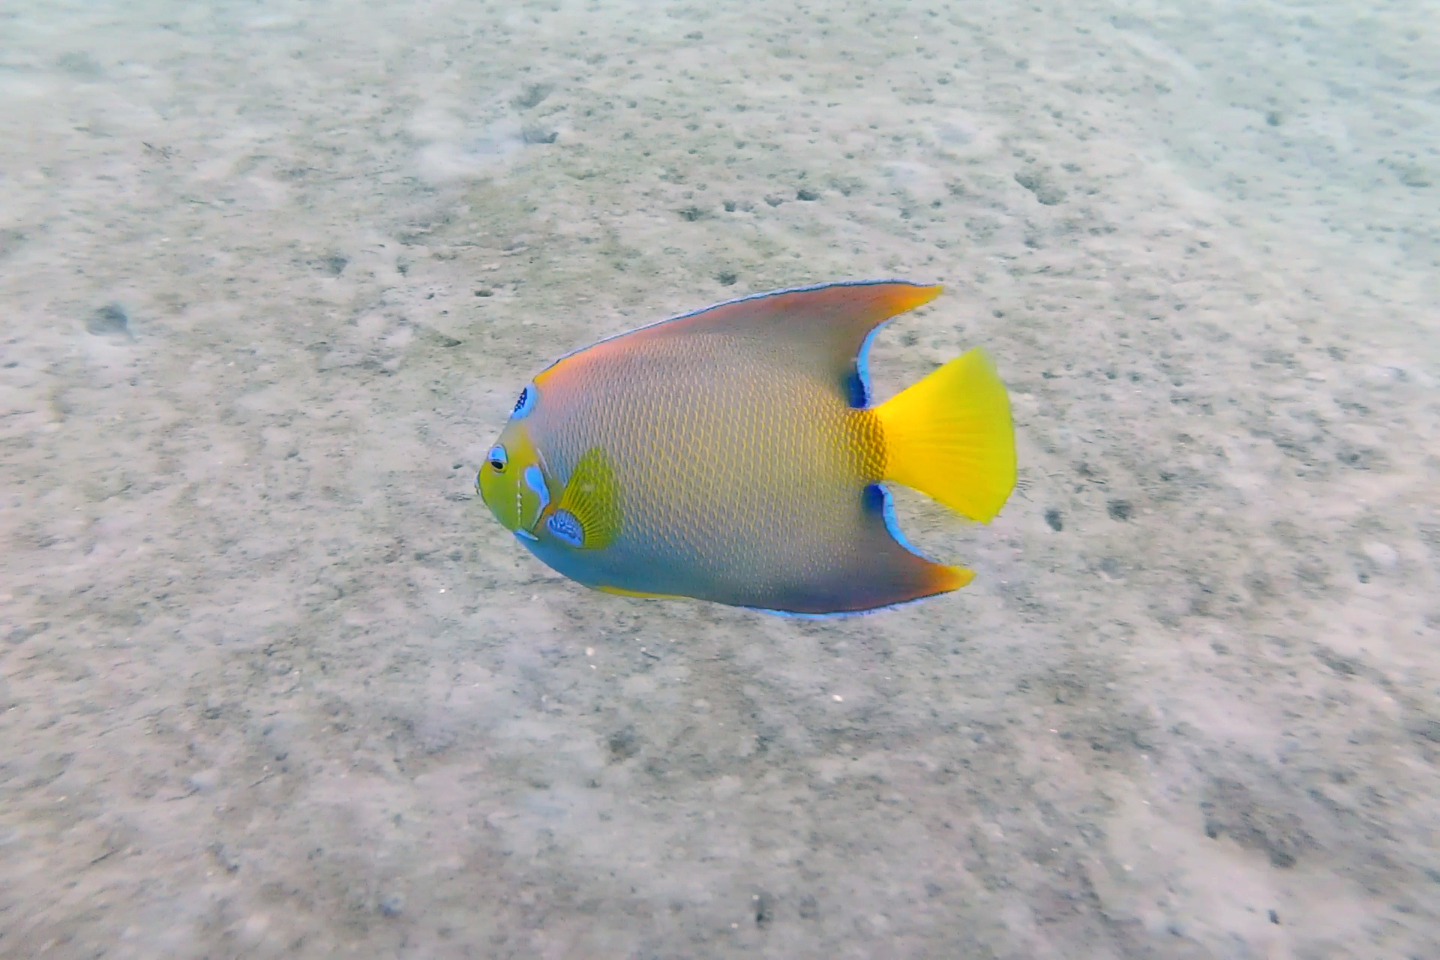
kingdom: Animalia
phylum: Chordata
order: Perciformes
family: Pomacanthidae
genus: Holacanthus
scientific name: Holacanthus ciliaris
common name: Queen angelfish
